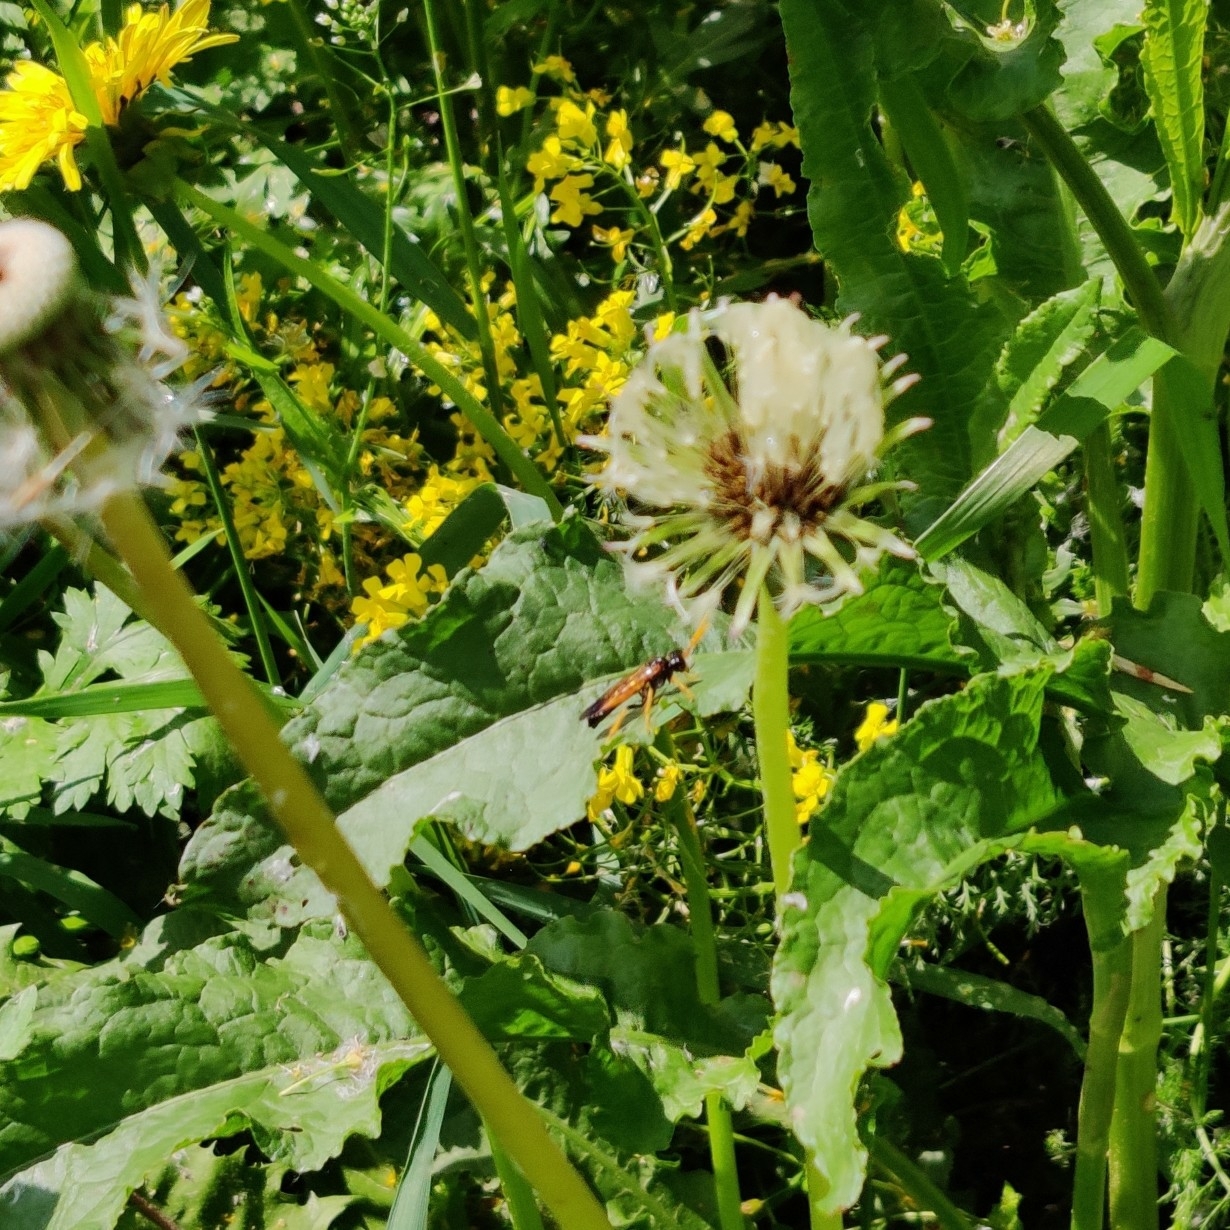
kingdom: Animalia
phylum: Arthropoda
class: Insecta
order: Hymenoptera
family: Tenthredinidae
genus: Tenthredo
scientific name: Tenthredo campestris
